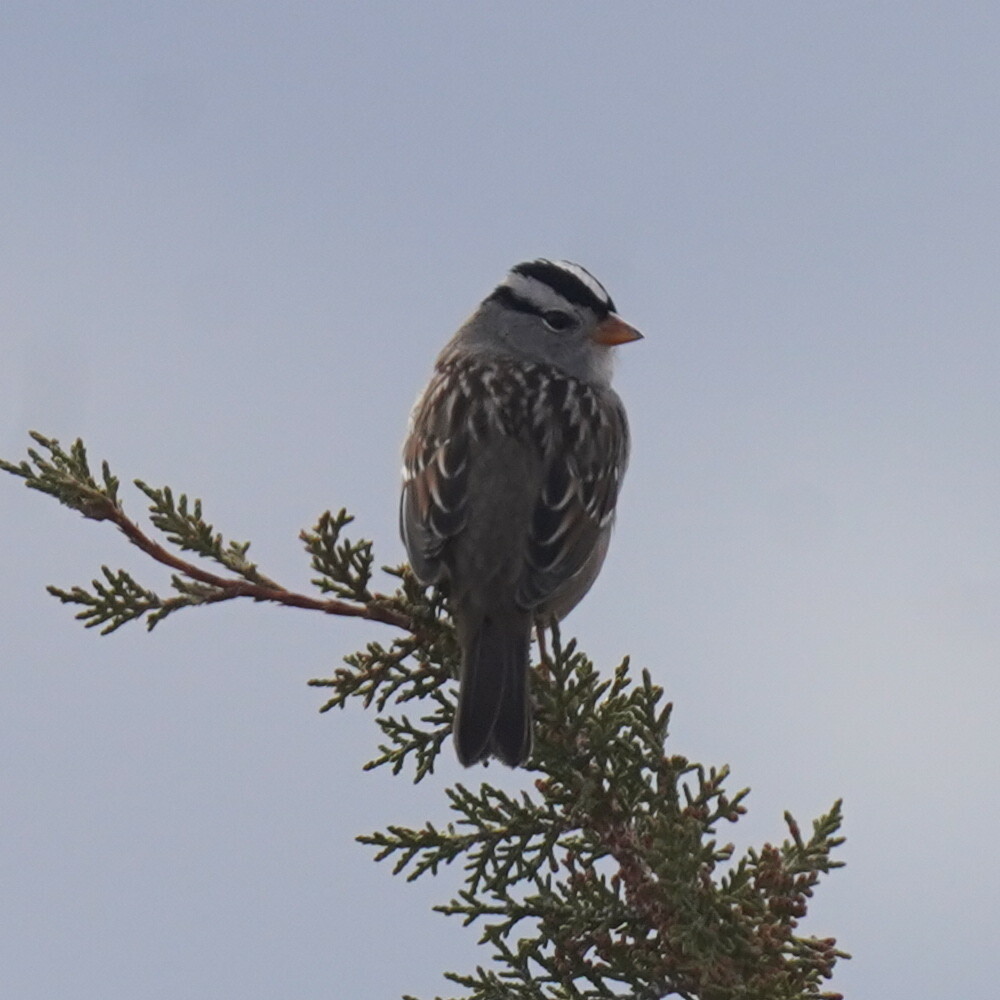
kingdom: Animalia
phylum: Chordata
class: Aves
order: Passeriformes
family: Passerellidae
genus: Zonotrichia
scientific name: Zonotrichia leucophrys
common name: White-crowned sparrow
